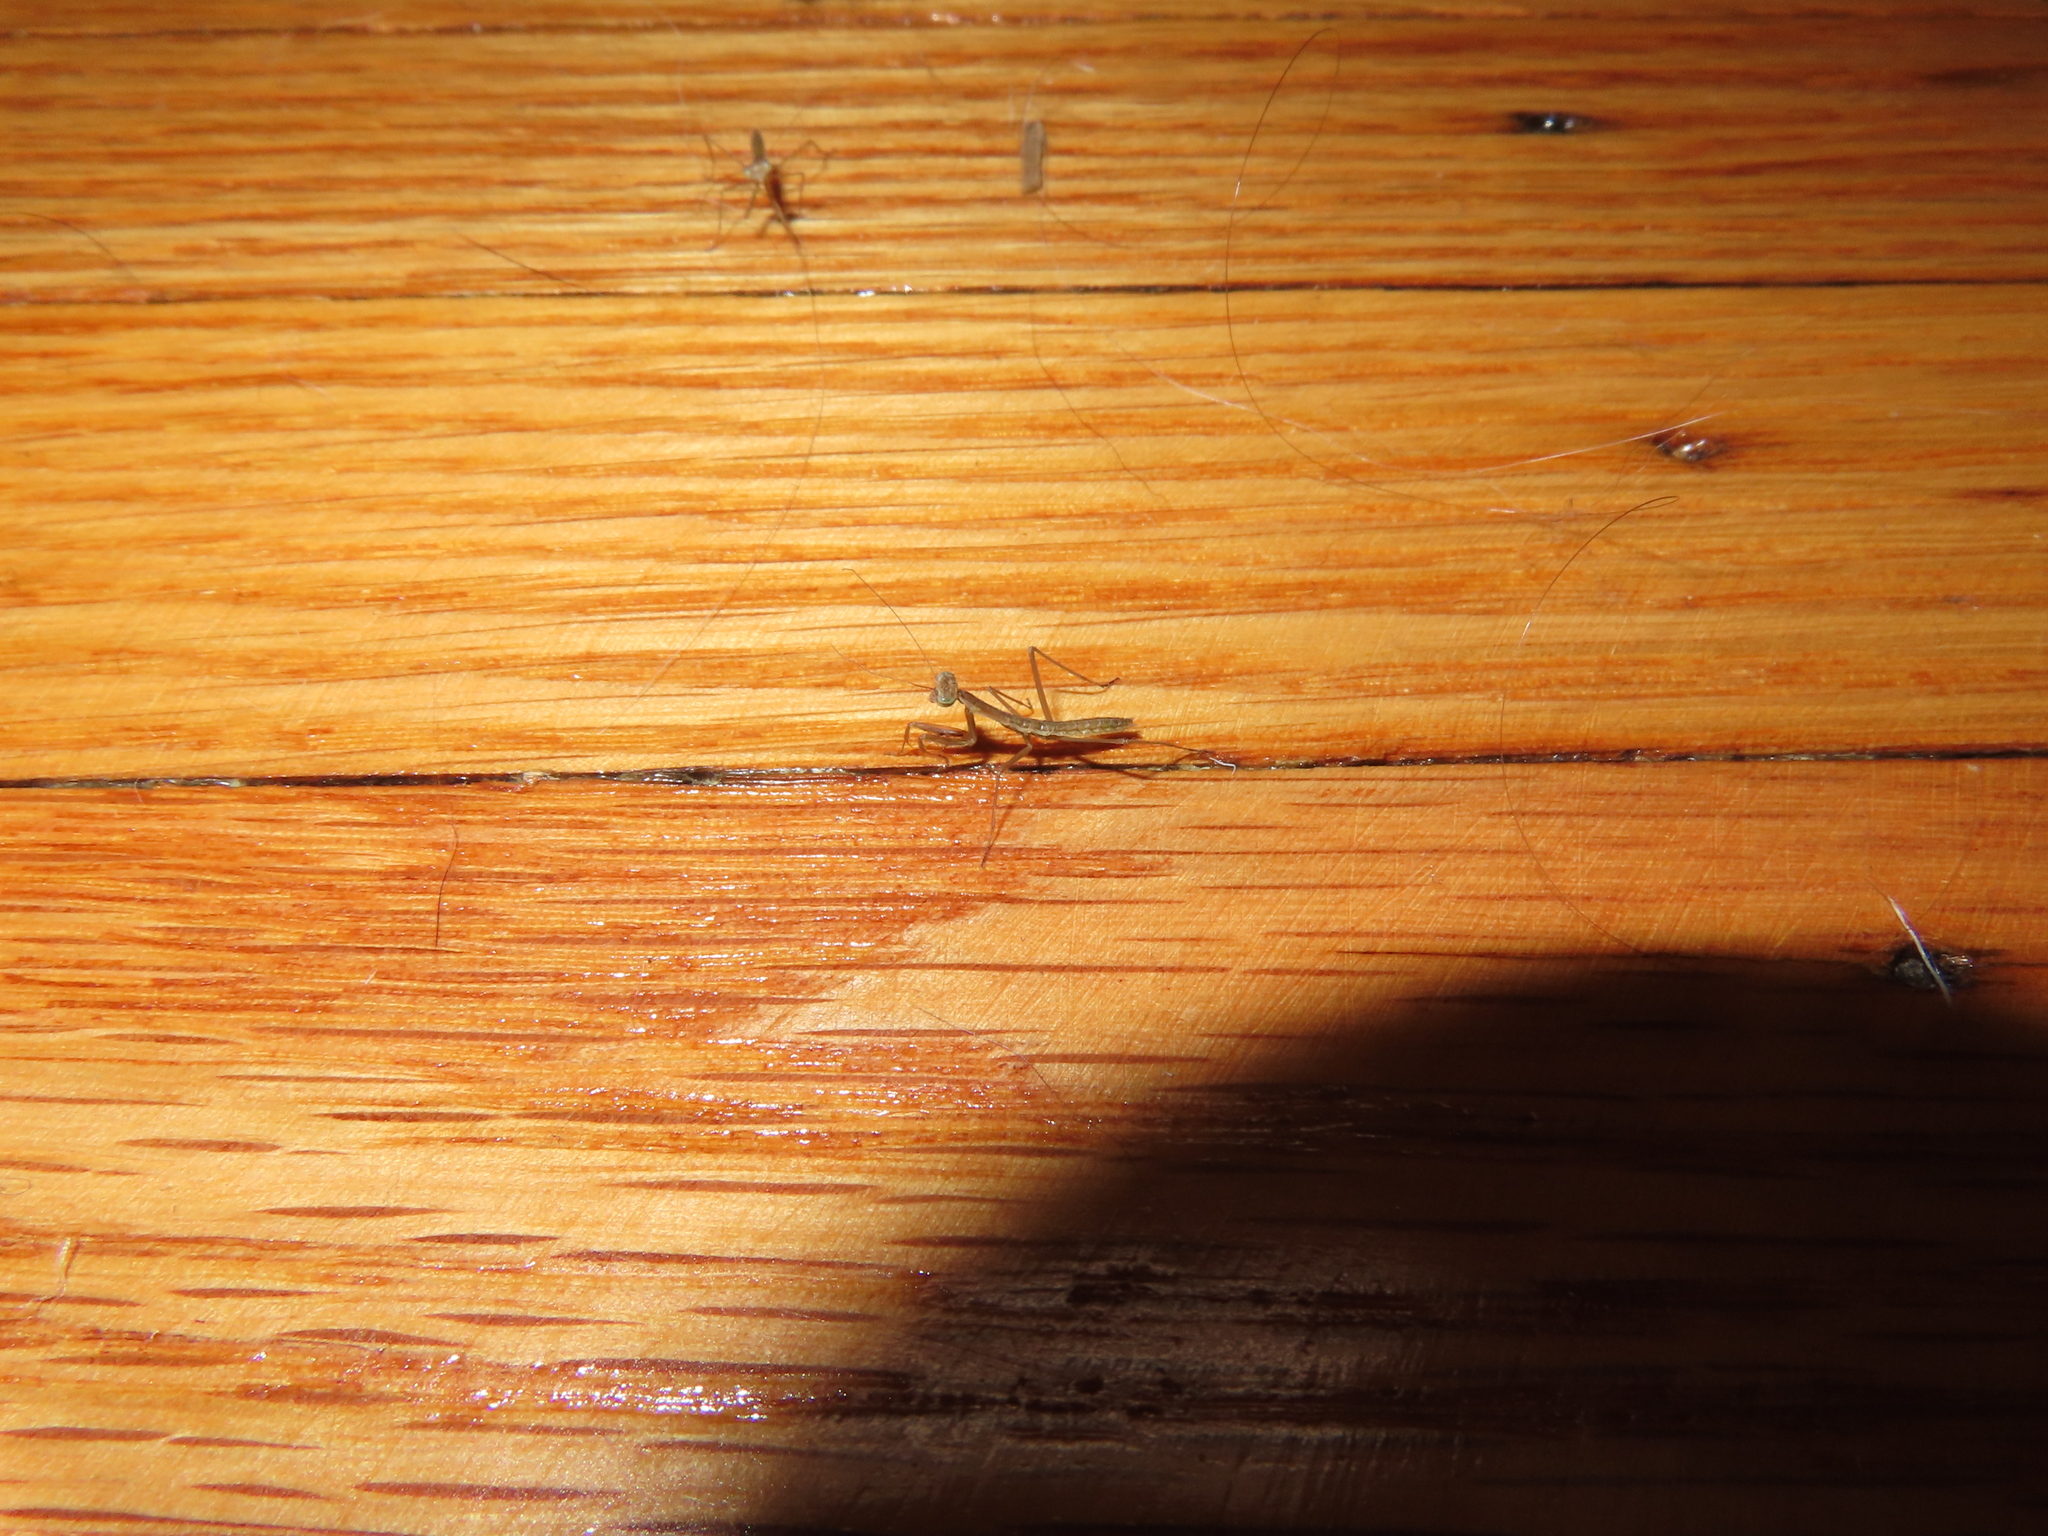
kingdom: Animalia
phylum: Arthropoda
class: Insecta
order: Mantodea
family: Mantidae
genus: Tenodera
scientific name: Tenodera sinensis
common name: Chinese mantis
